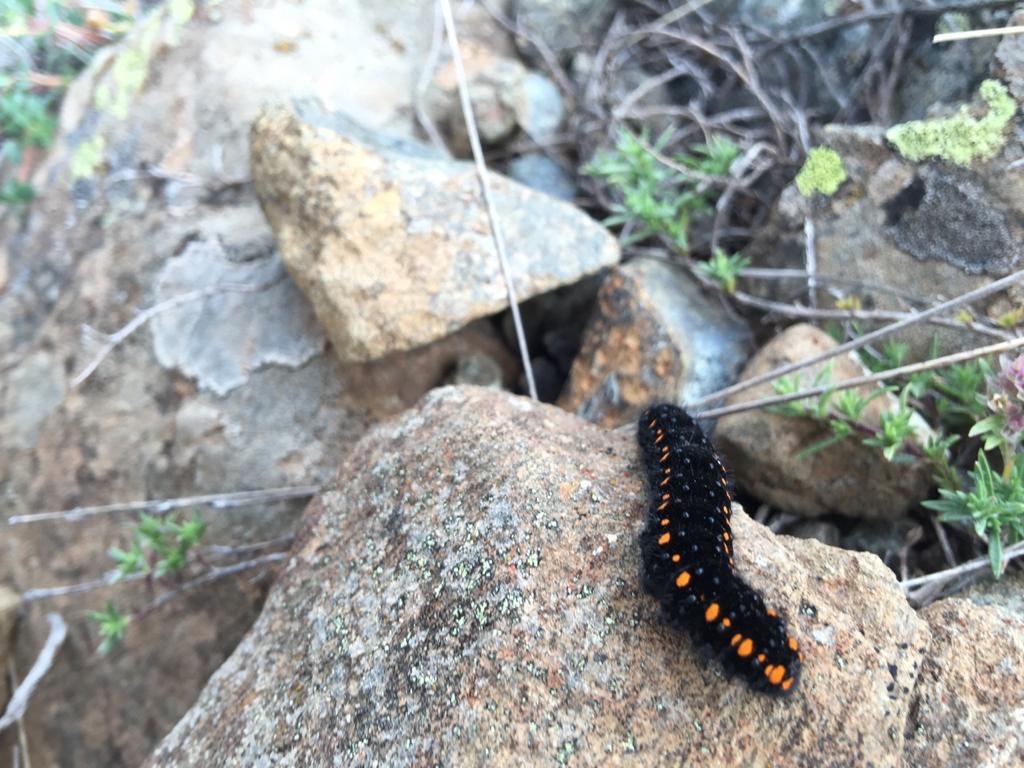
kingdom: Animalia
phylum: Arthropoda
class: Insecta
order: Lepidoptera
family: Papilionidae
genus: Parnassius
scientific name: Parnassius apollo
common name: Apollo
